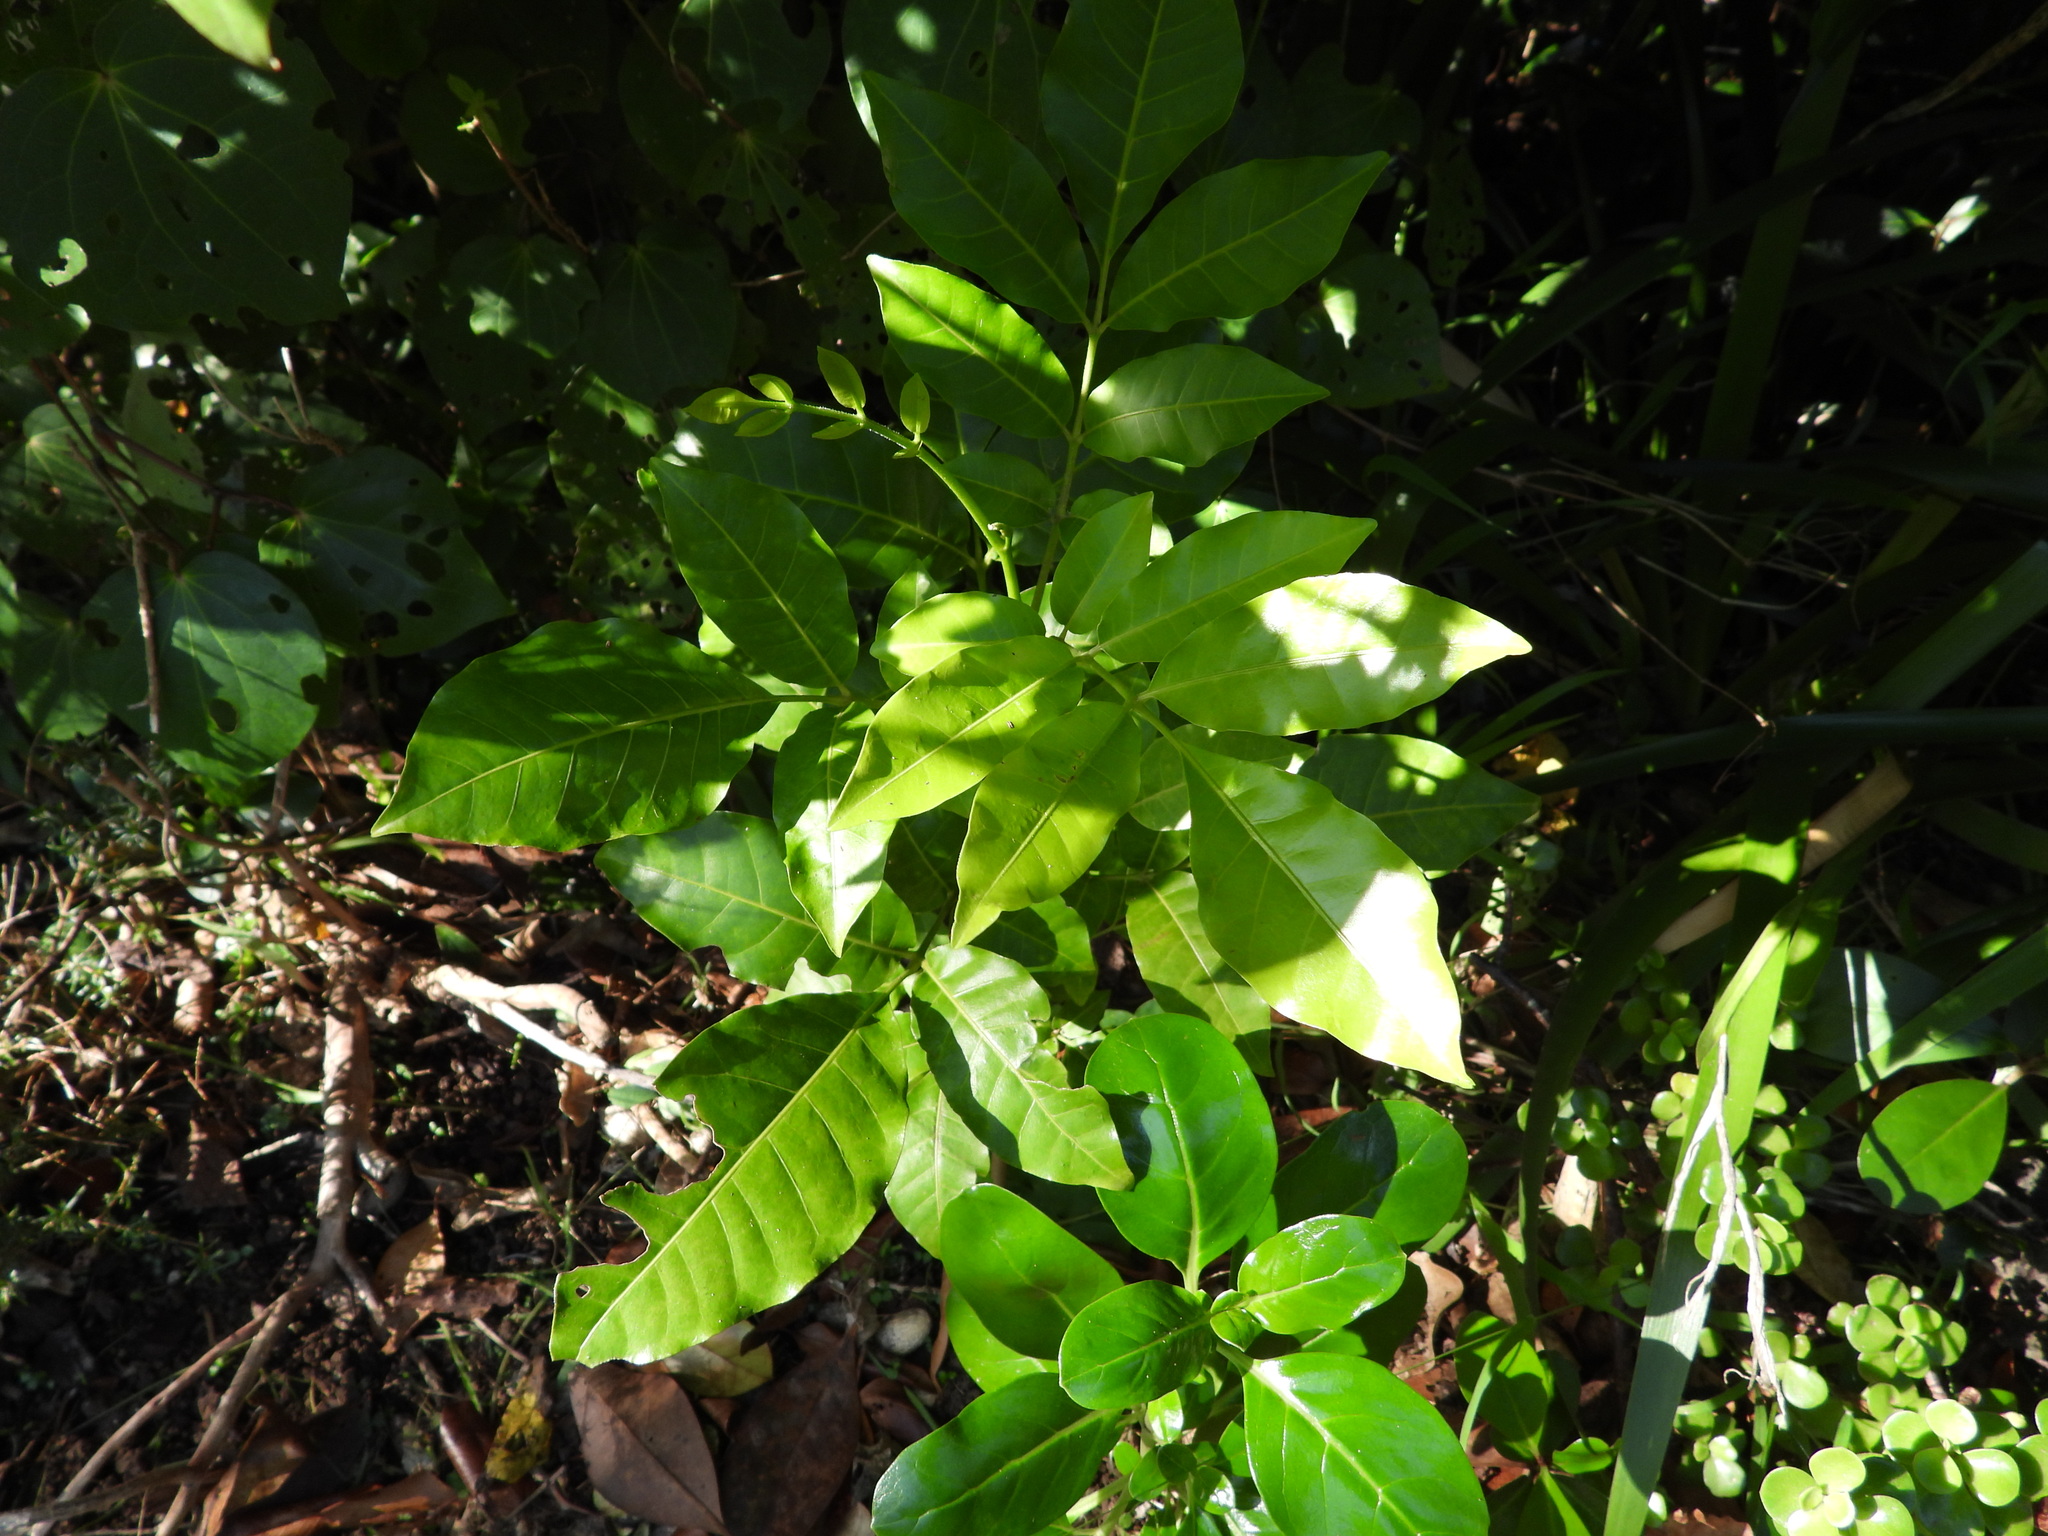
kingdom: Plantae
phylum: Tracheophyta
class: Magnoliopsida
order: Sapindales
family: Meliaceae
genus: Didymocheton
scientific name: Didymocheton spectabilis
